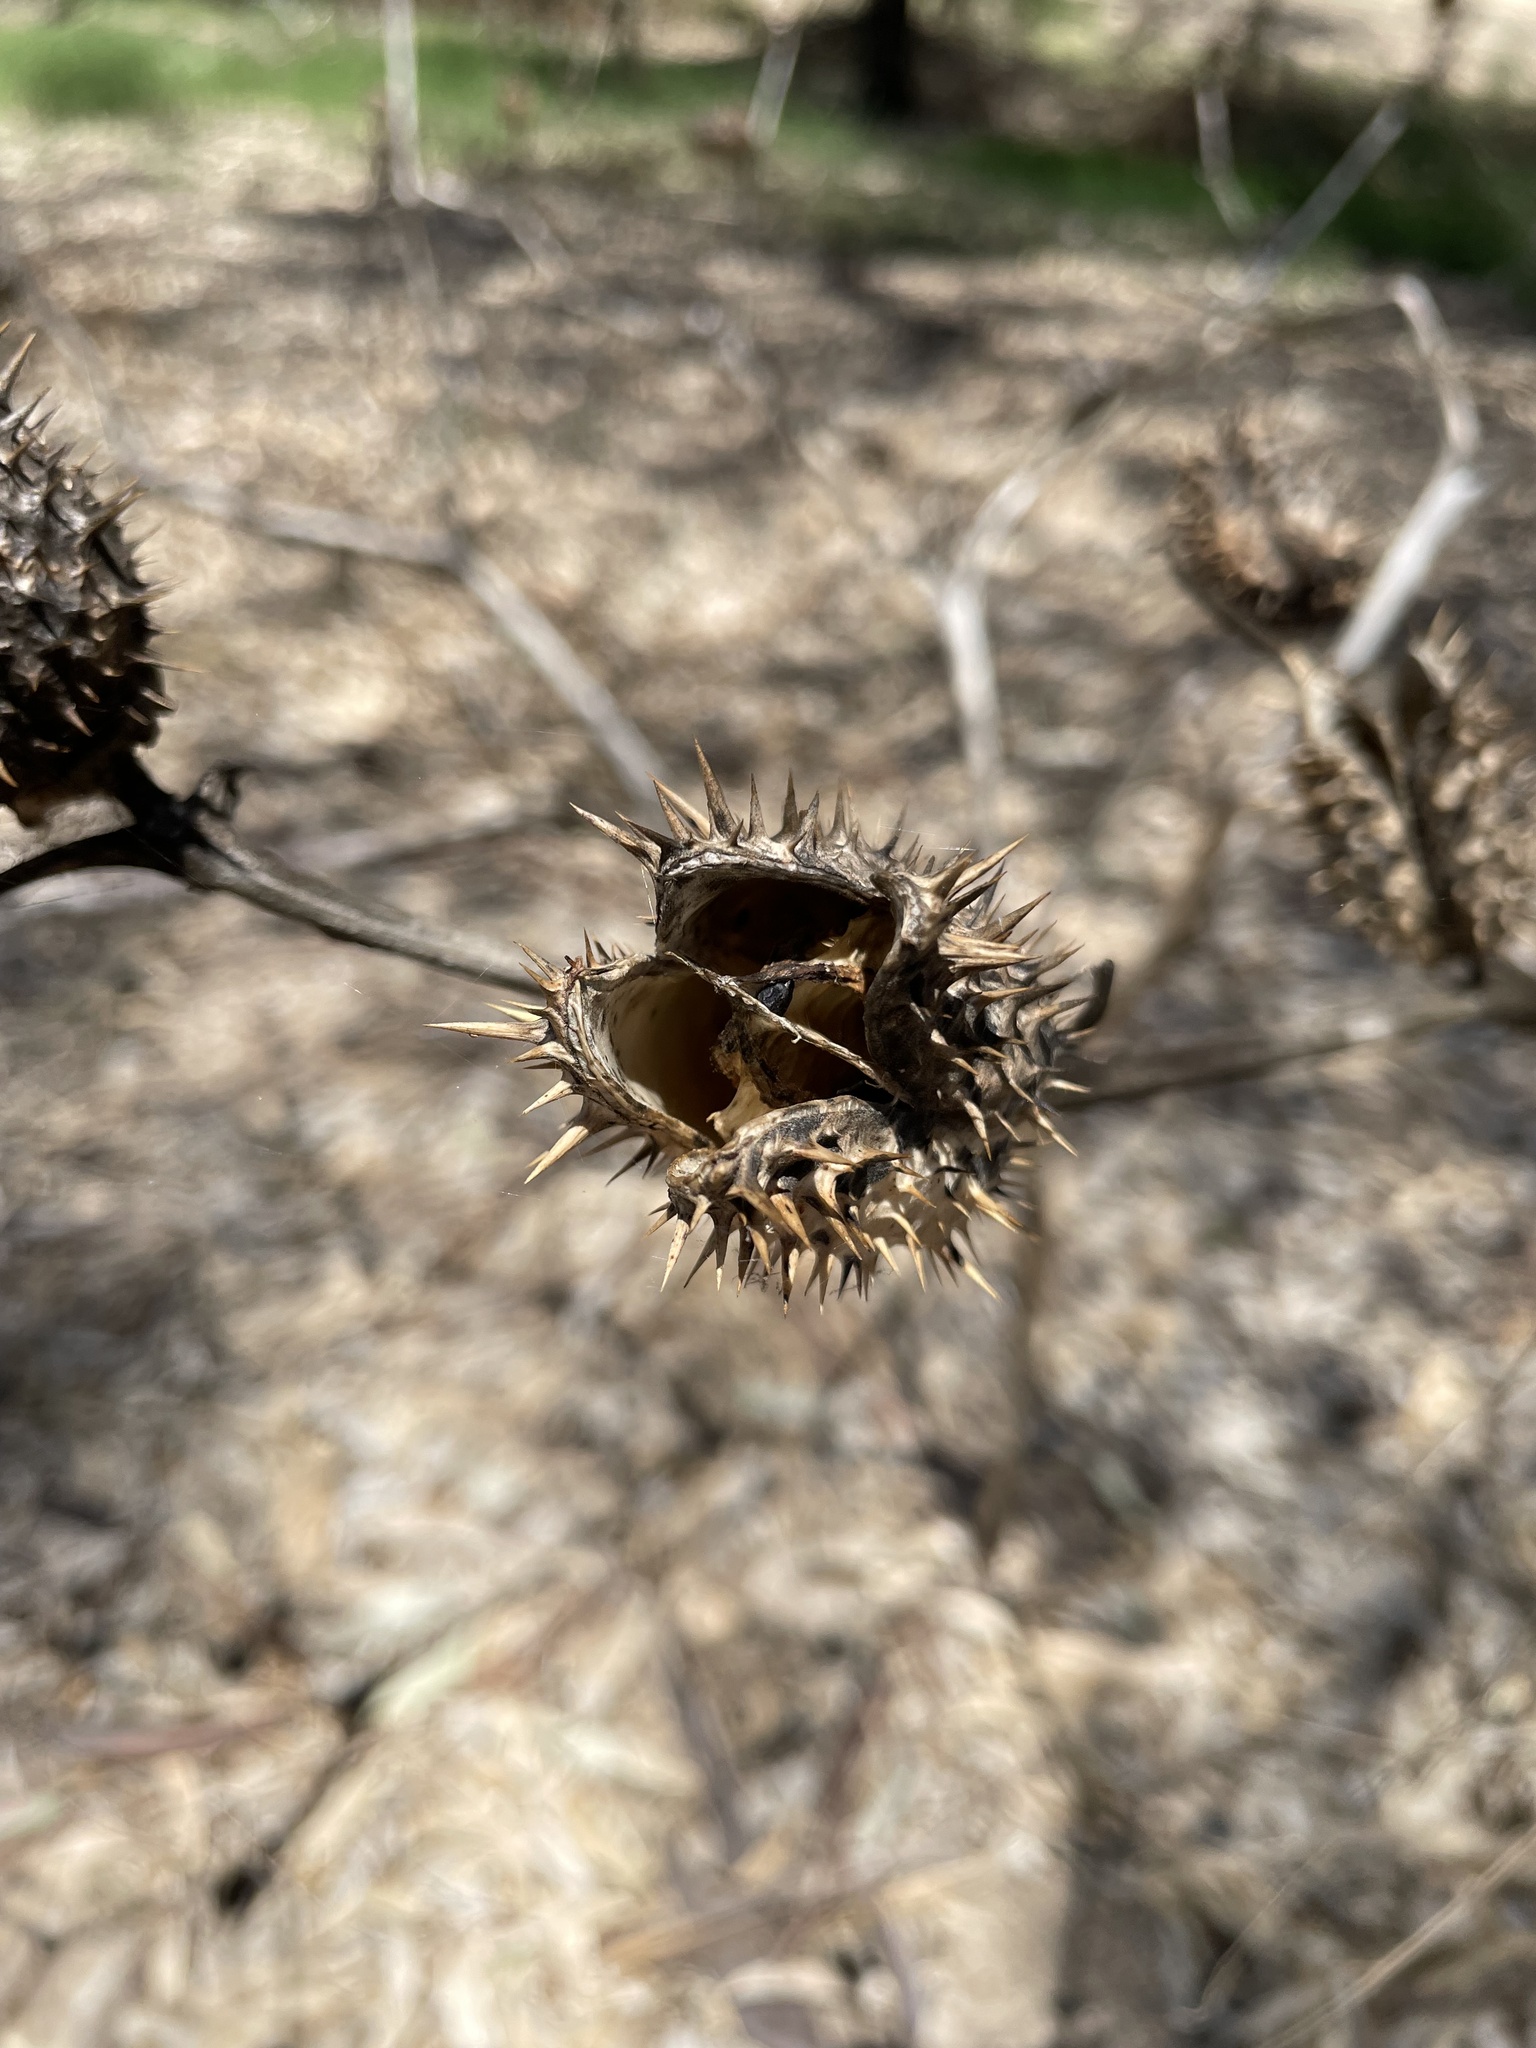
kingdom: Plantae
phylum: Tracheophyta
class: Magnoliopsida
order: Solanales
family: Solanaceae
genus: Datura
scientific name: Datura stramonium
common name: Thorn-apple
